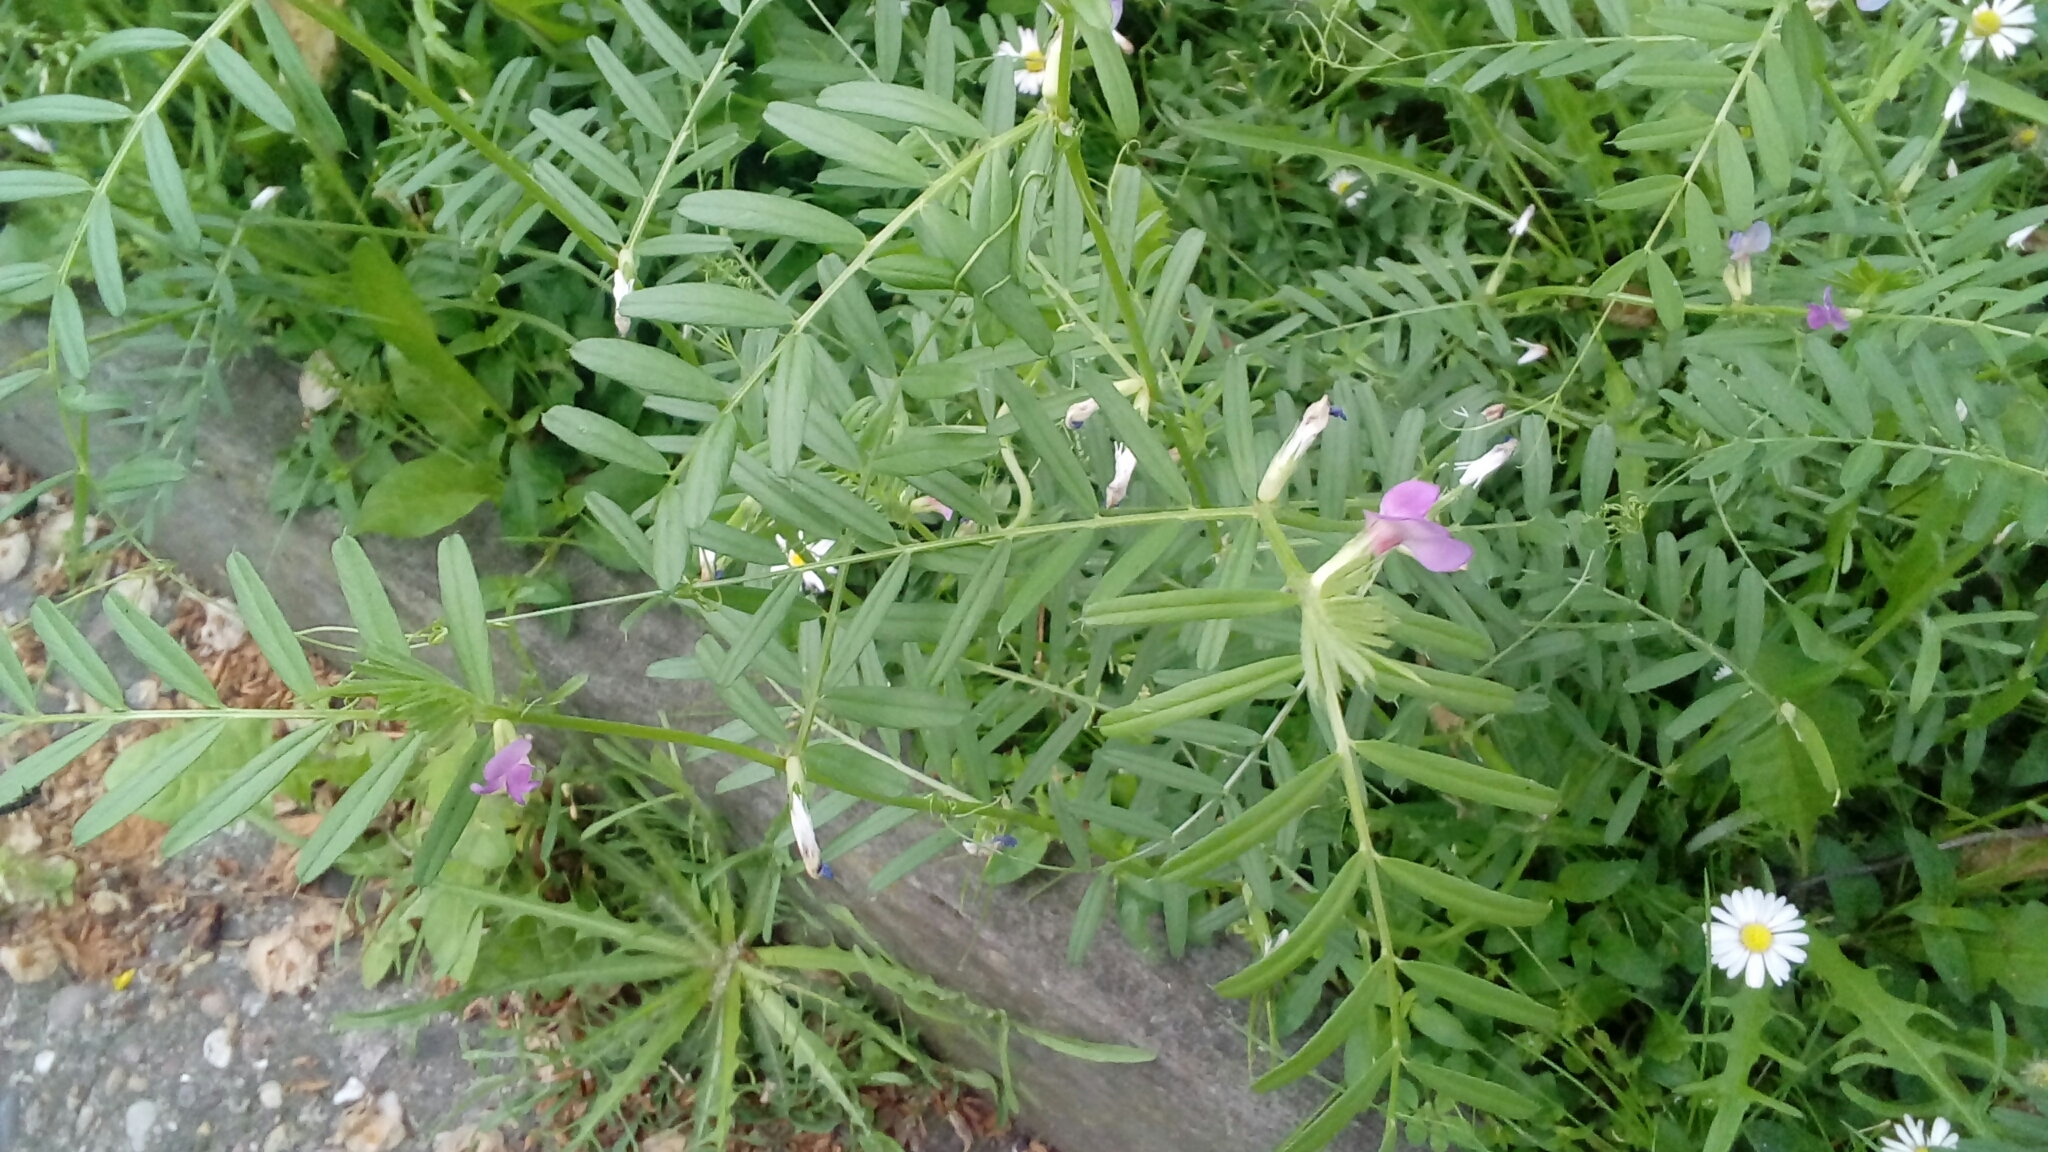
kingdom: Plantae
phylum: Tracheophyta
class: Magnoliopsida
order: Fabales
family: Fabaceae
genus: Vicia
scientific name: Vicia sativa
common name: Garden vetch
